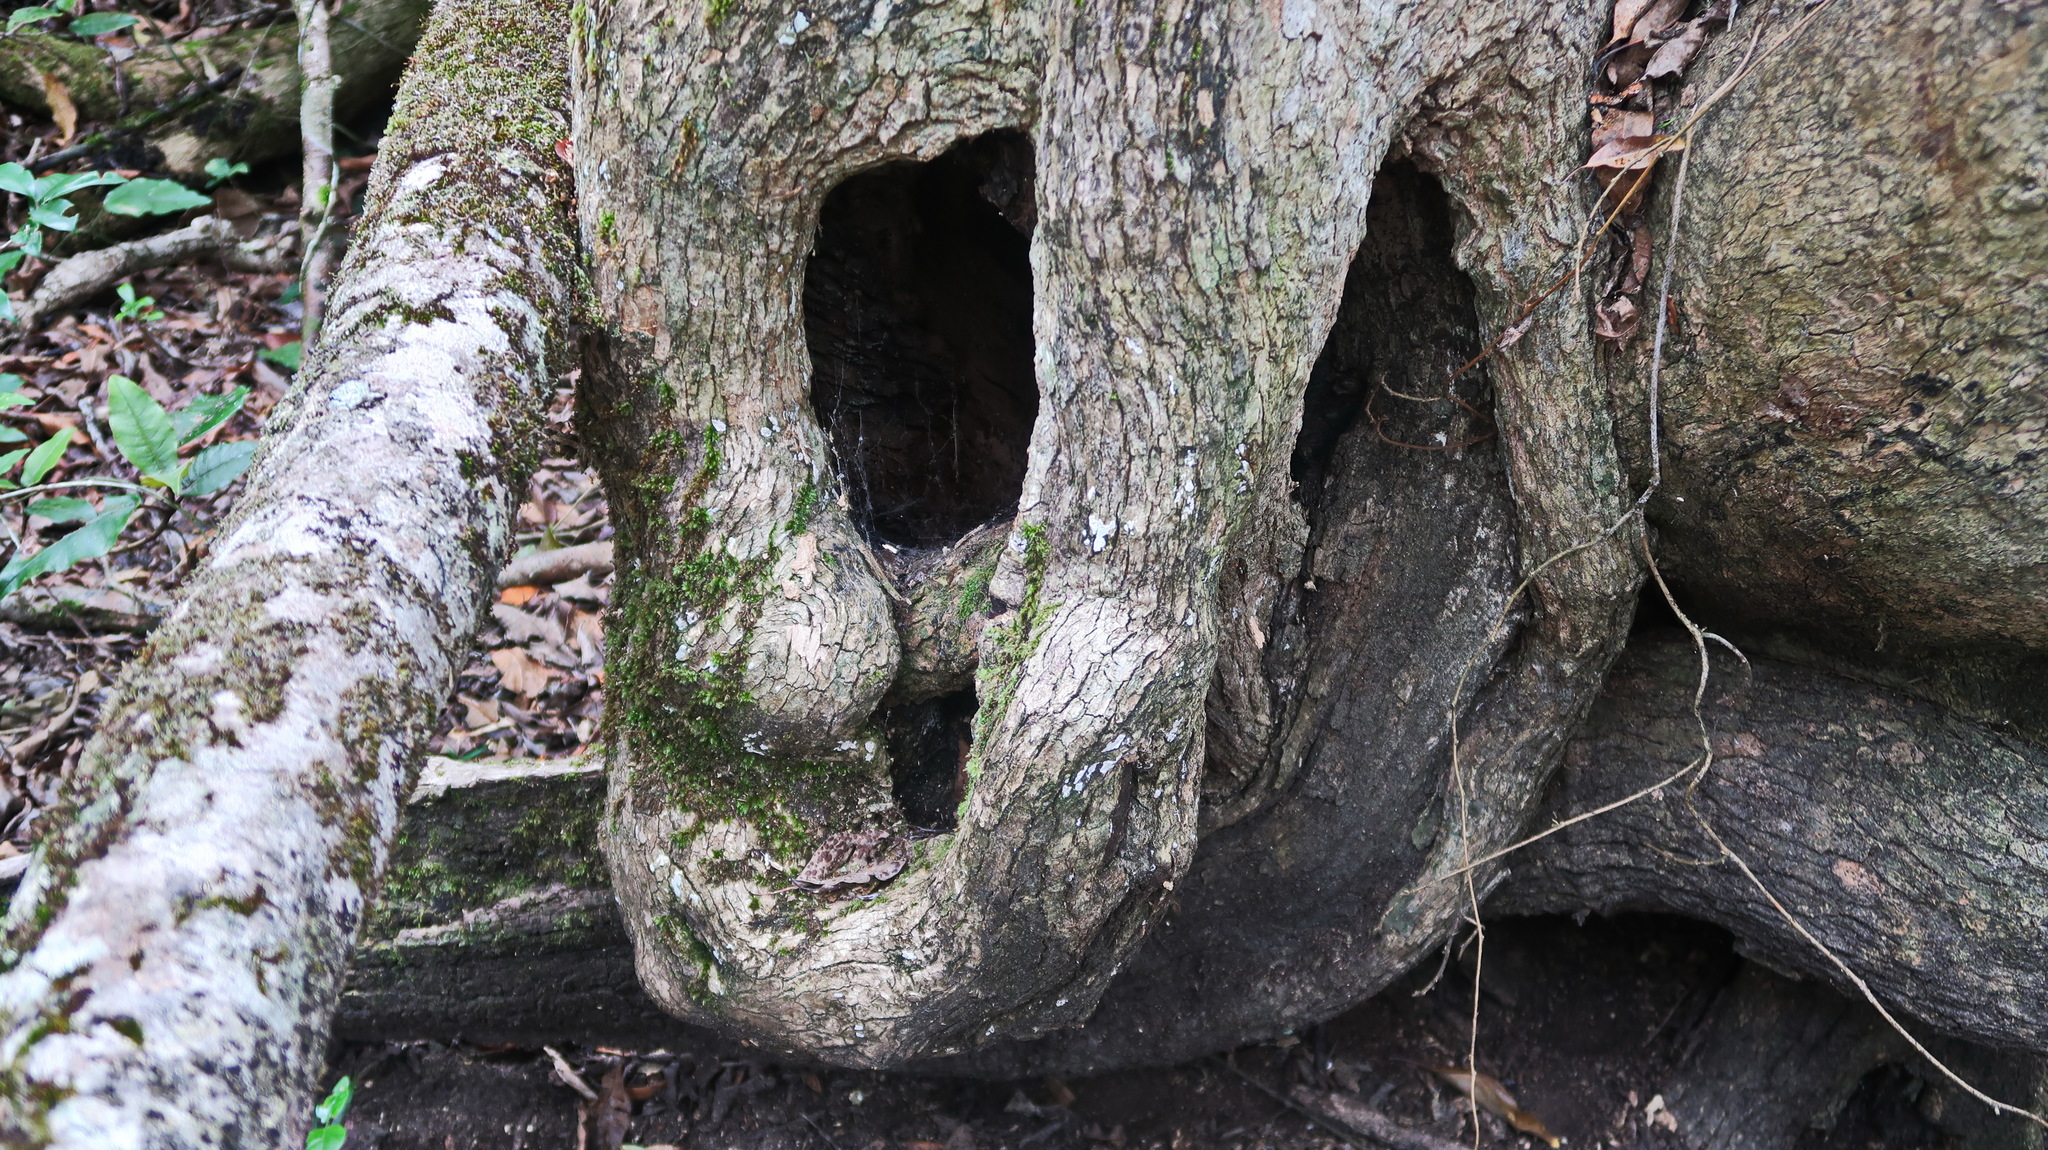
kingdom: Plantae
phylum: Tracheophyta
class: Magnoliopsida
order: Lamiales
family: Stilbaceae
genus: Nuxia
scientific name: Nuxia floribunda
